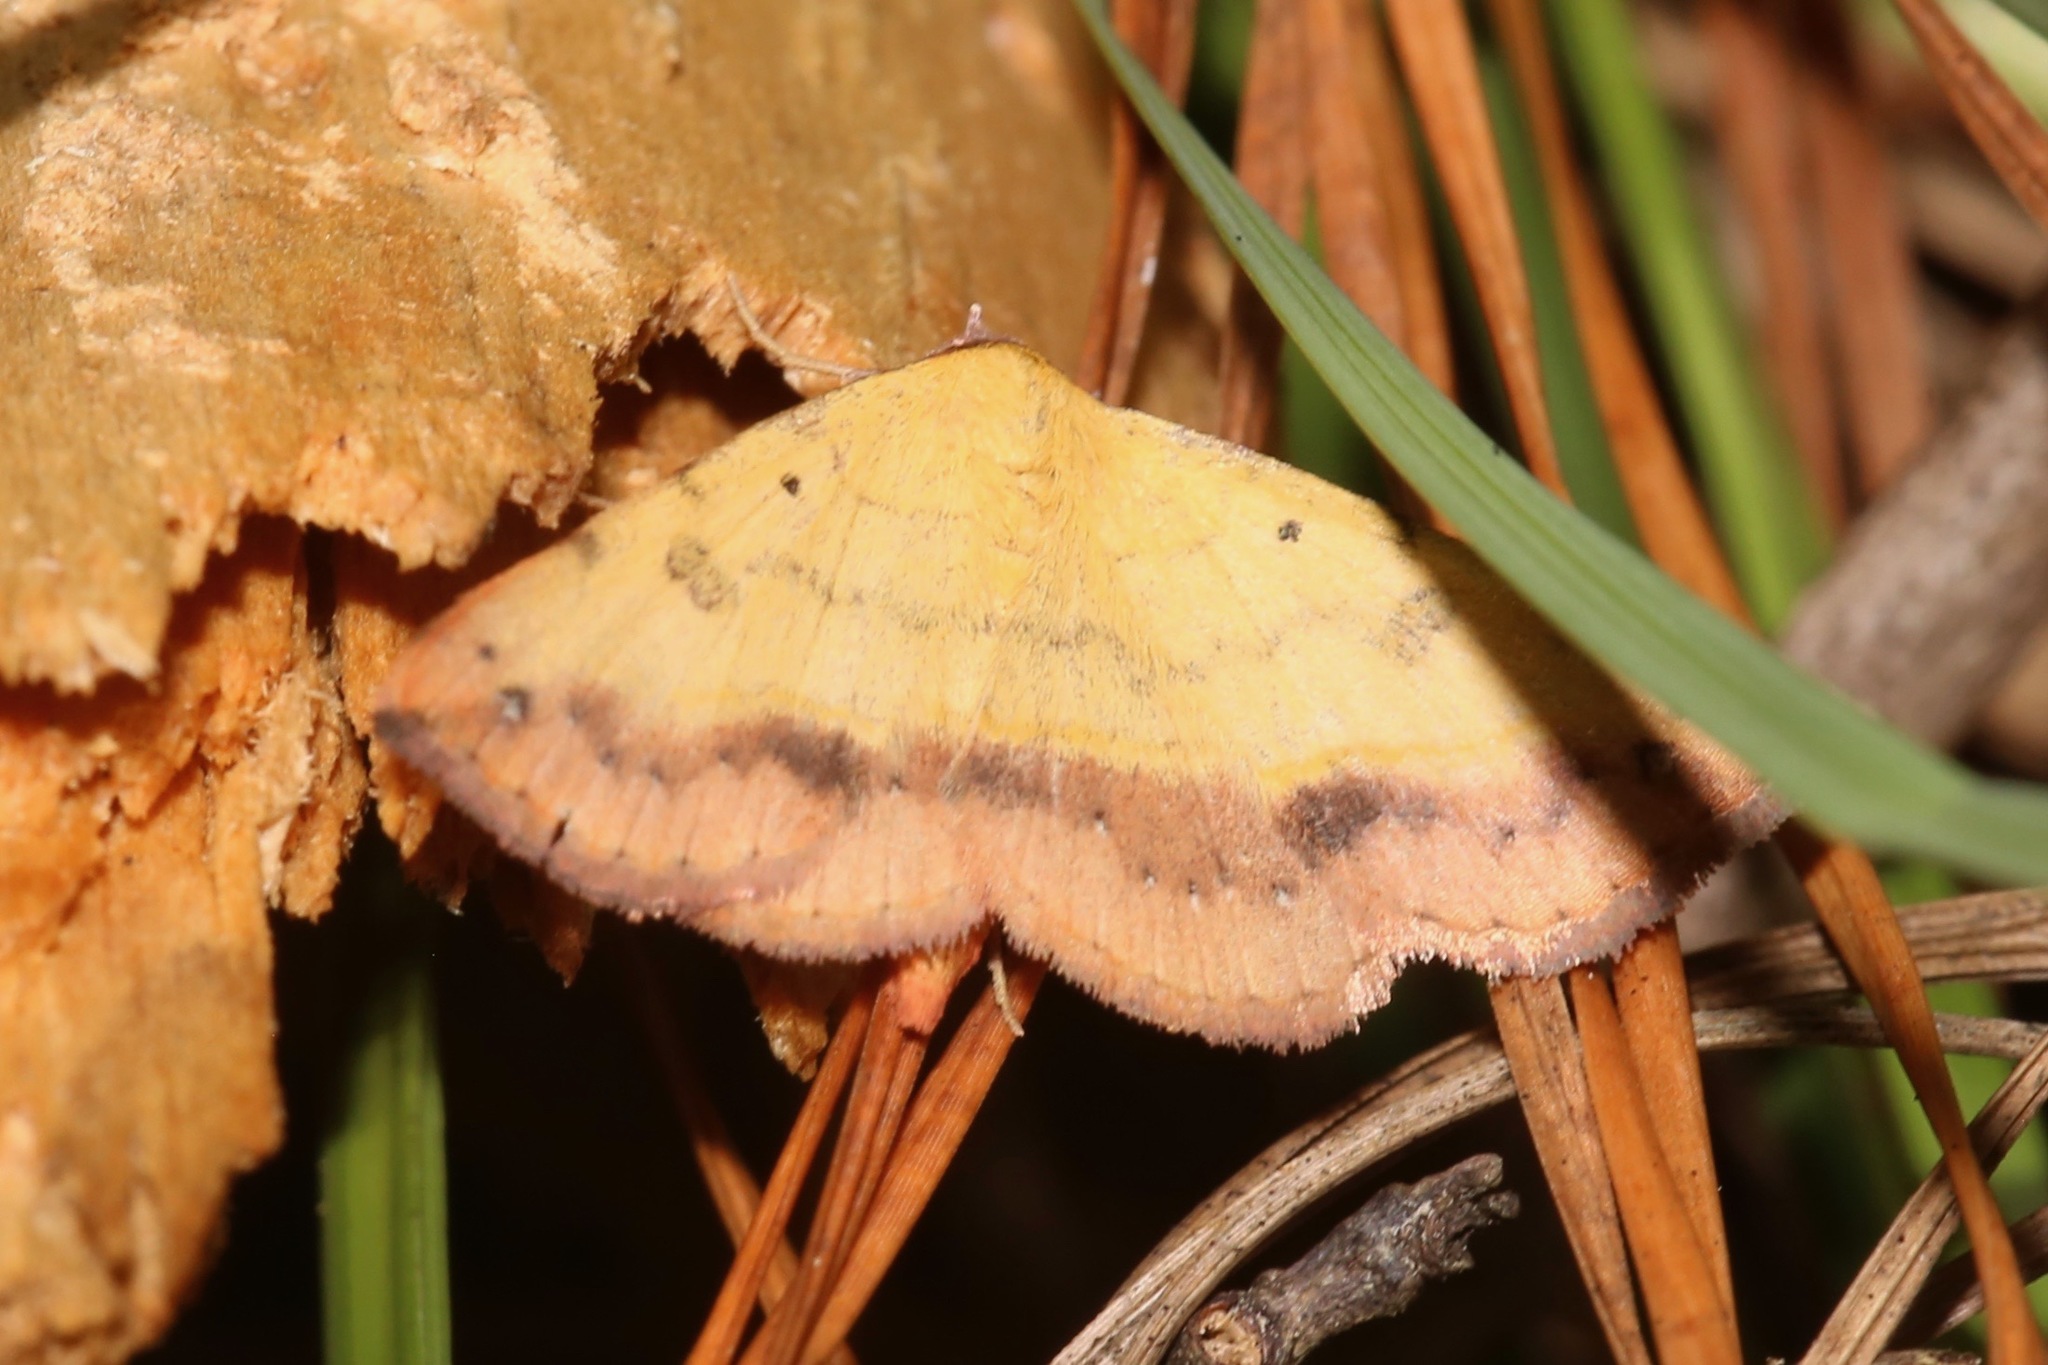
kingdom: Animalia
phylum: Arthropoda
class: Insecta
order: Lepidoptera
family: Erebidae
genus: Hemeroplanis
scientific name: Hemeroplanis scopulepes
